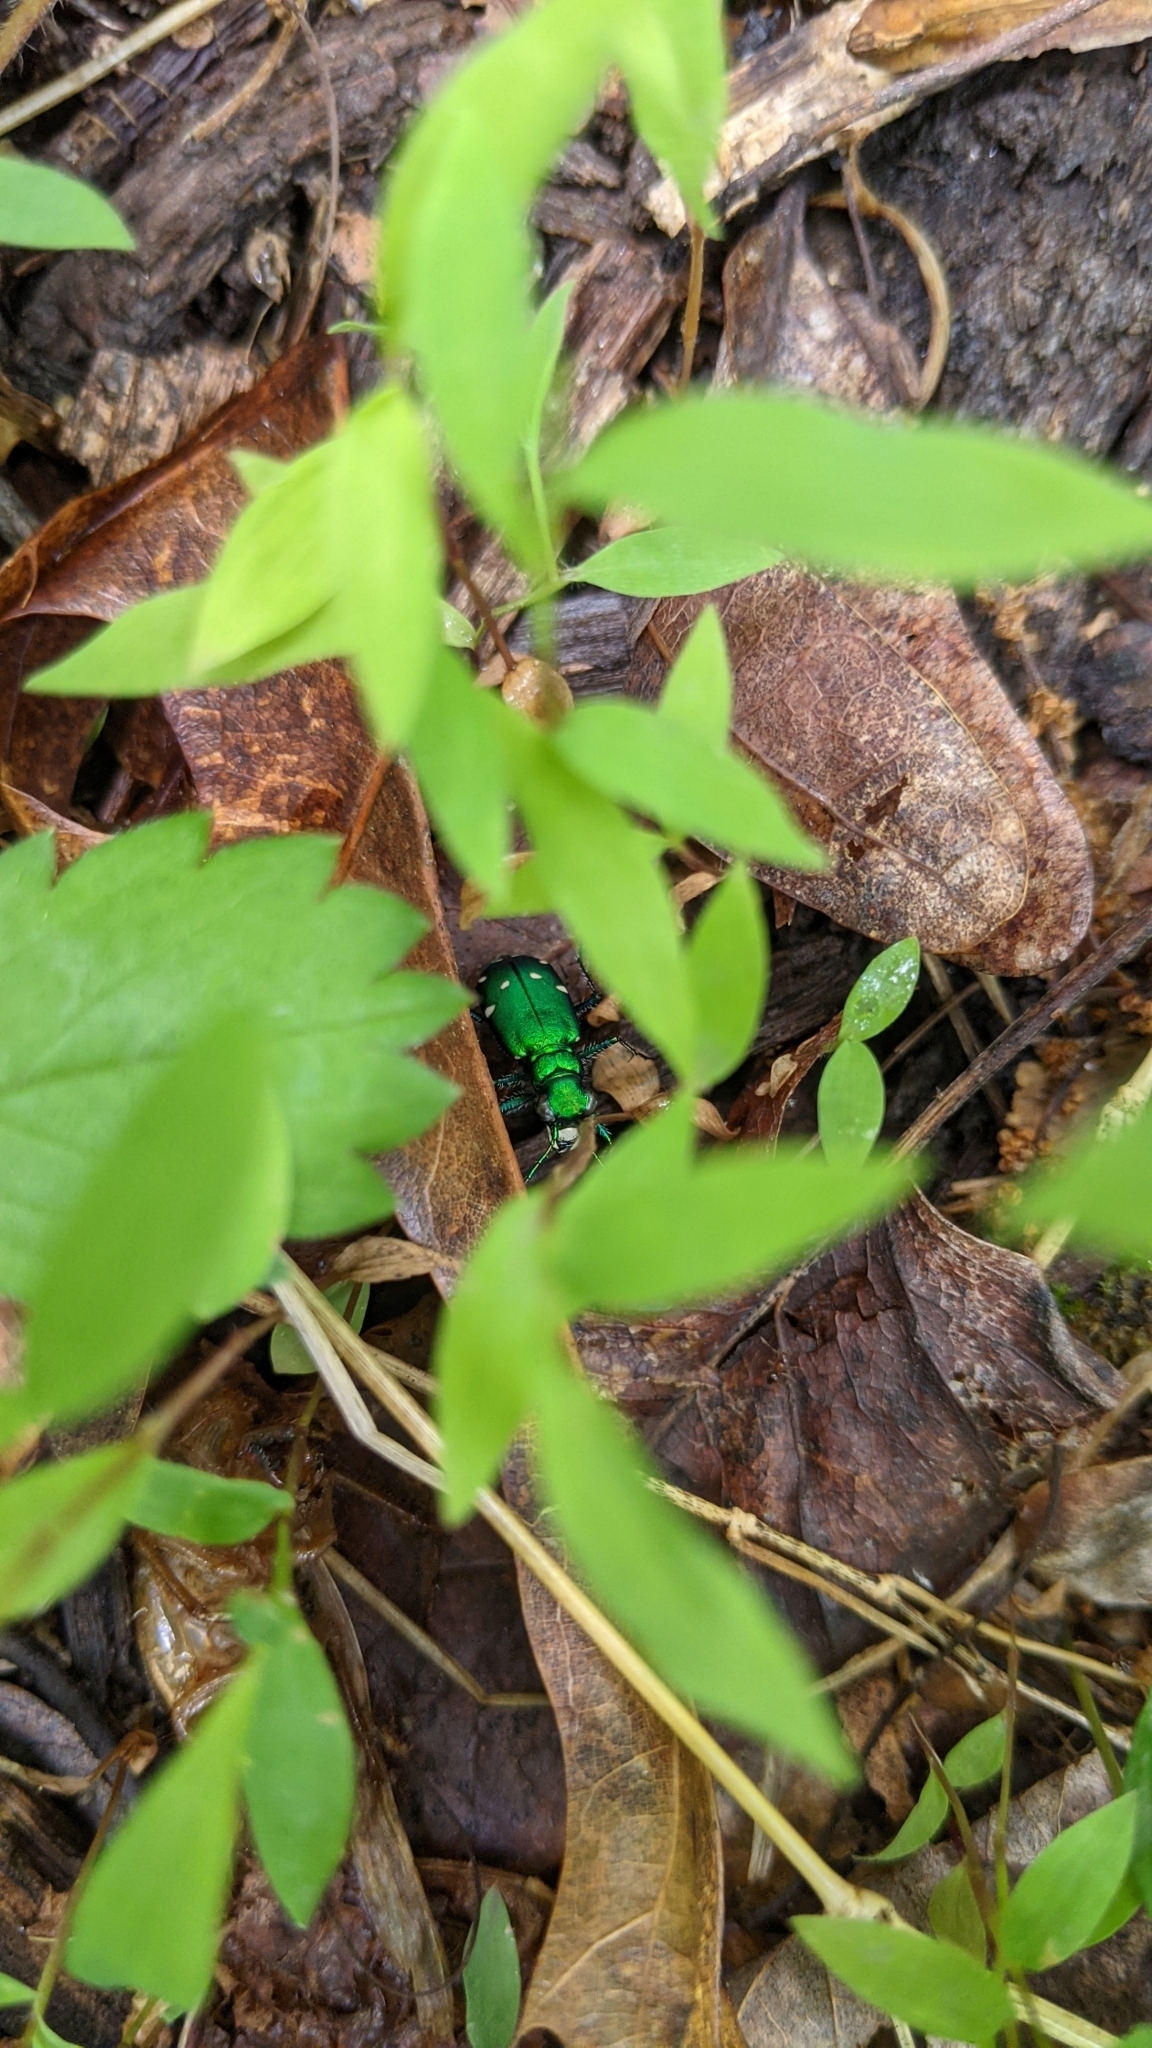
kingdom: Animalia
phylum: Arthropoda
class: Insecta
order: Coleoptera
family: Carabidae
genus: Cicindela
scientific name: Cicindela sexguttata
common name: Six-spotted tiger beetle
